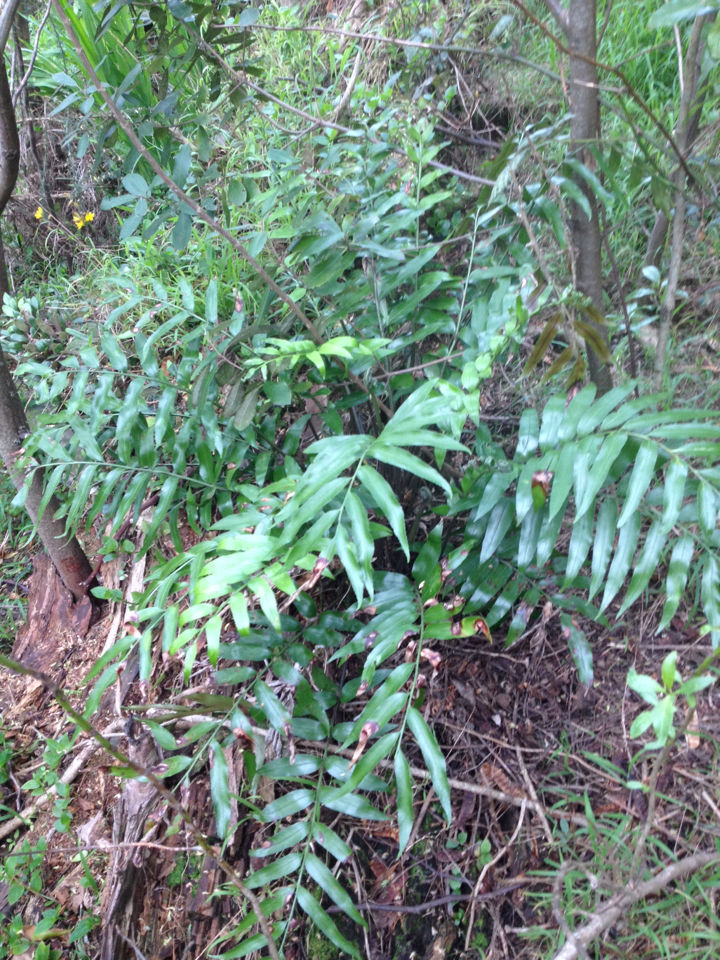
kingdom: Plantae
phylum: Tracheophyta
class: Polypodiopsida
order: Polypodiales
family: Aspleniaceae
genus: Asplenium
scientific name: Asplenium oblongifolium
